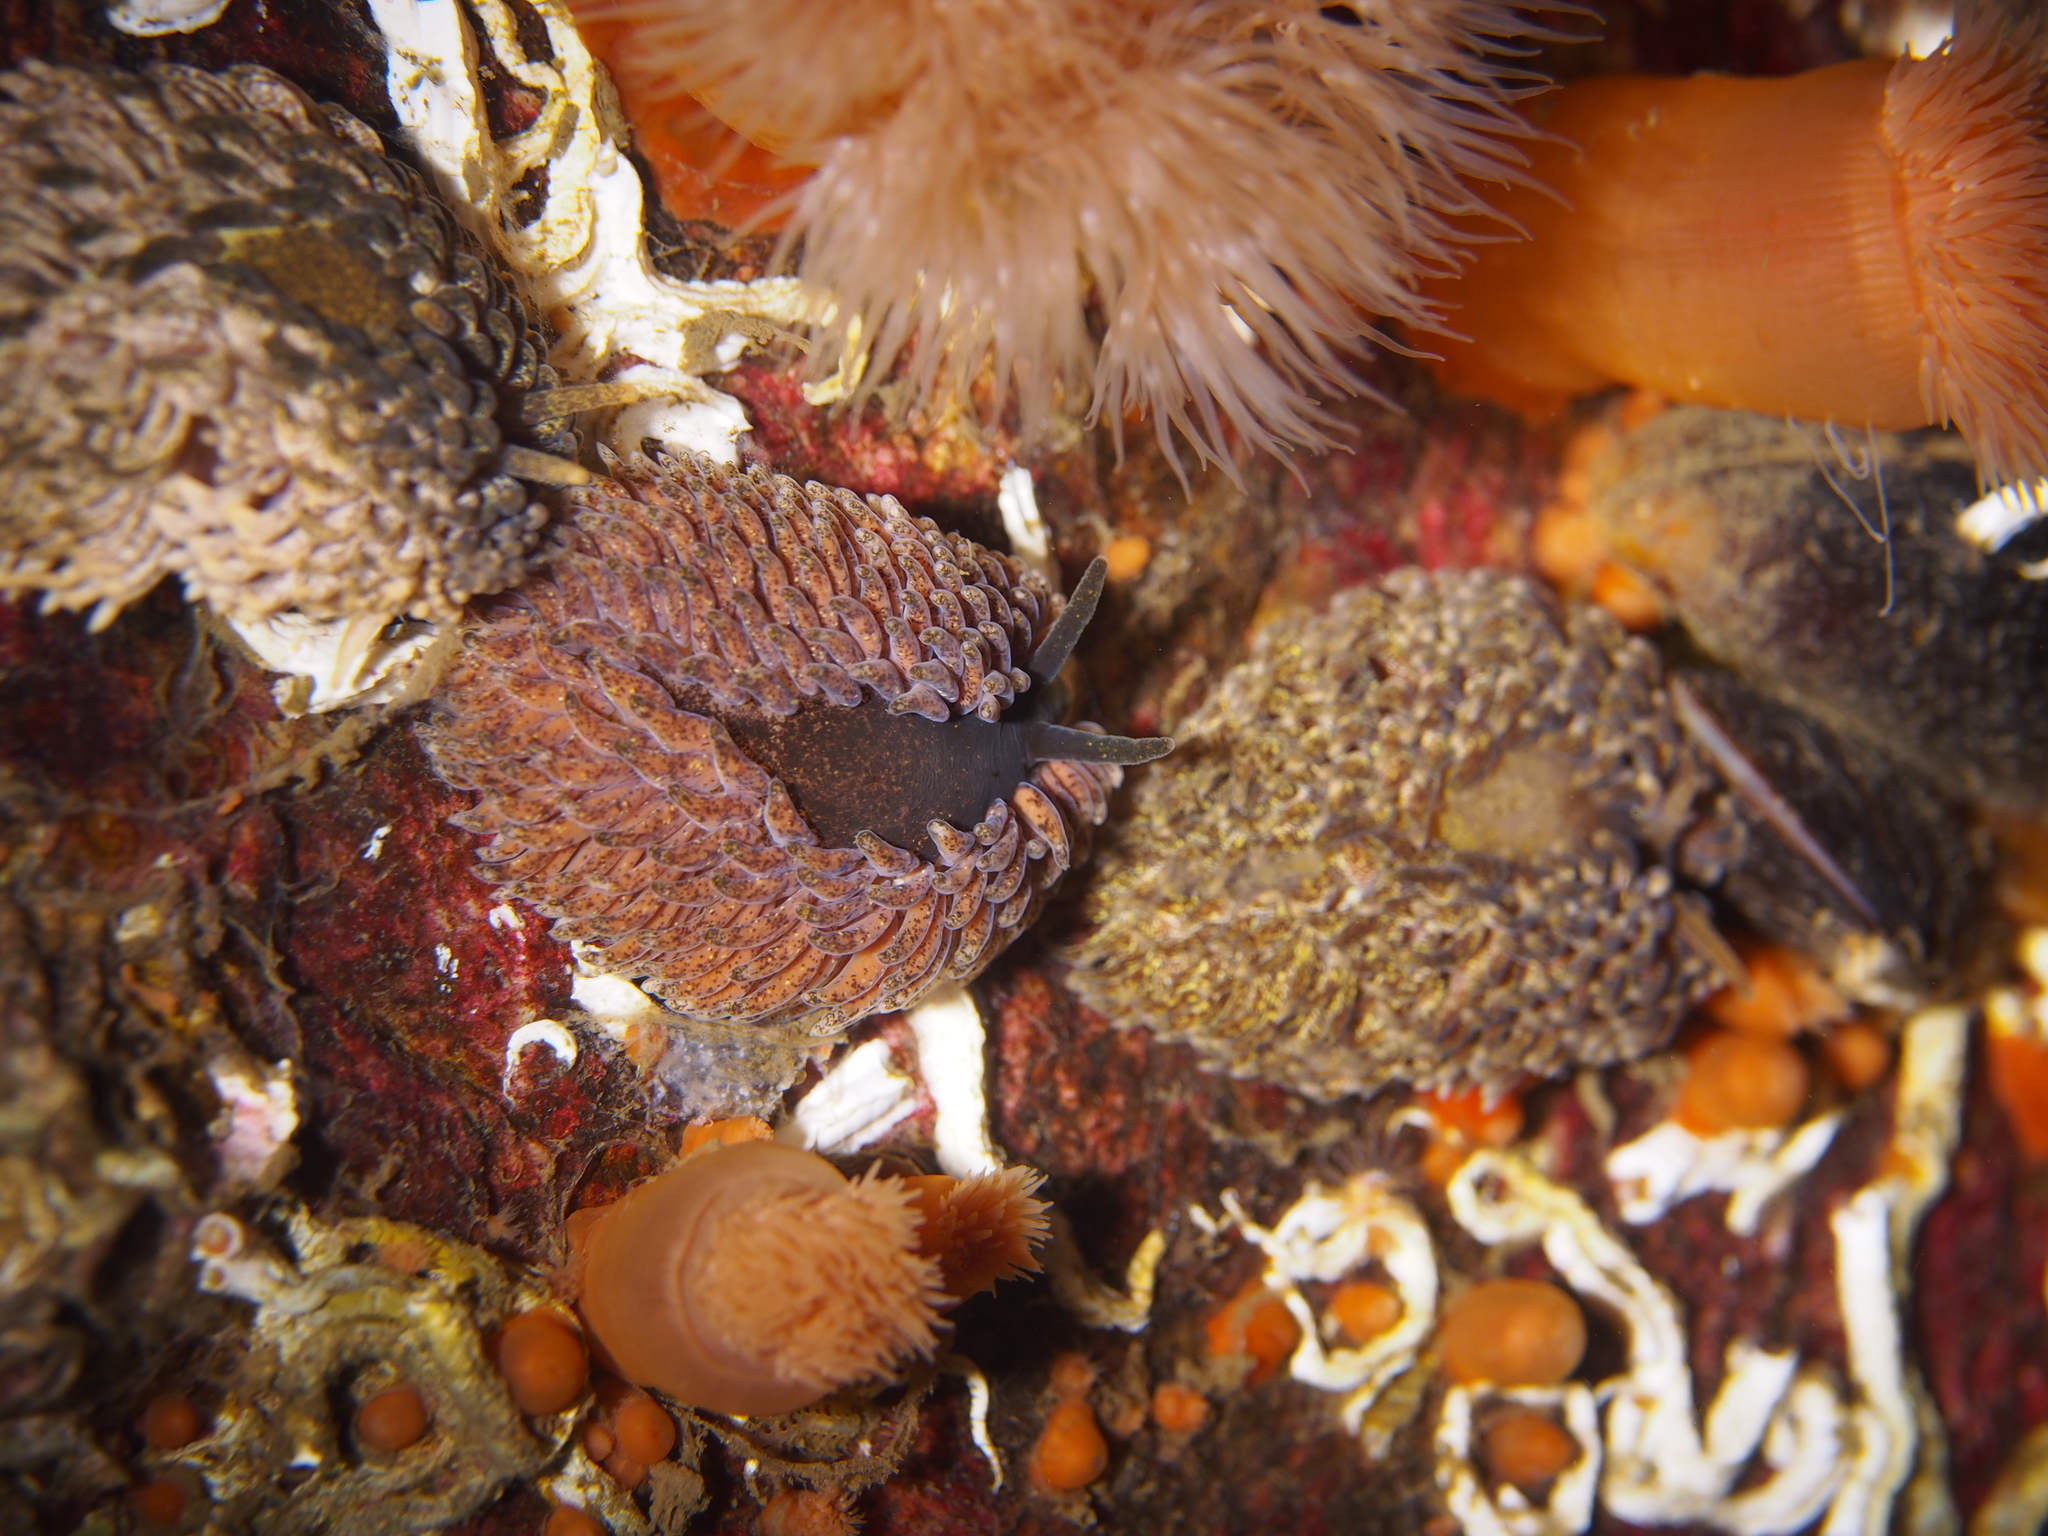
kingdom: Animalia
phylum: Mollusca
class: Gastropoda
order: Nudibranchia
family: Aeolidiidae
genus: Aeolidia
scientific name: Aeolidia papillosa
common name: Common grey sea slug
